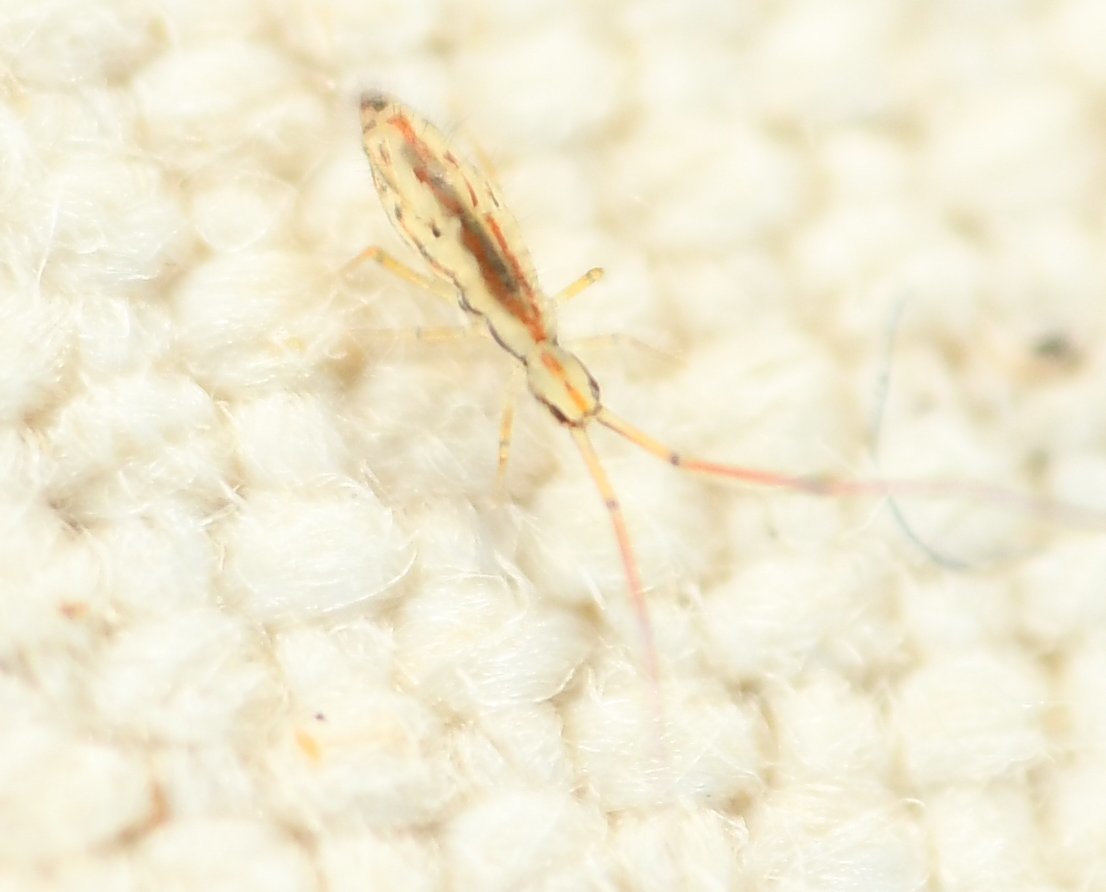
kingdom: Animalia
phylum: Arthropoda
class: Collembola
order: Entomobryomorpha
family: Paronellidae
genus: Salina
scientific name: Salina banksi
